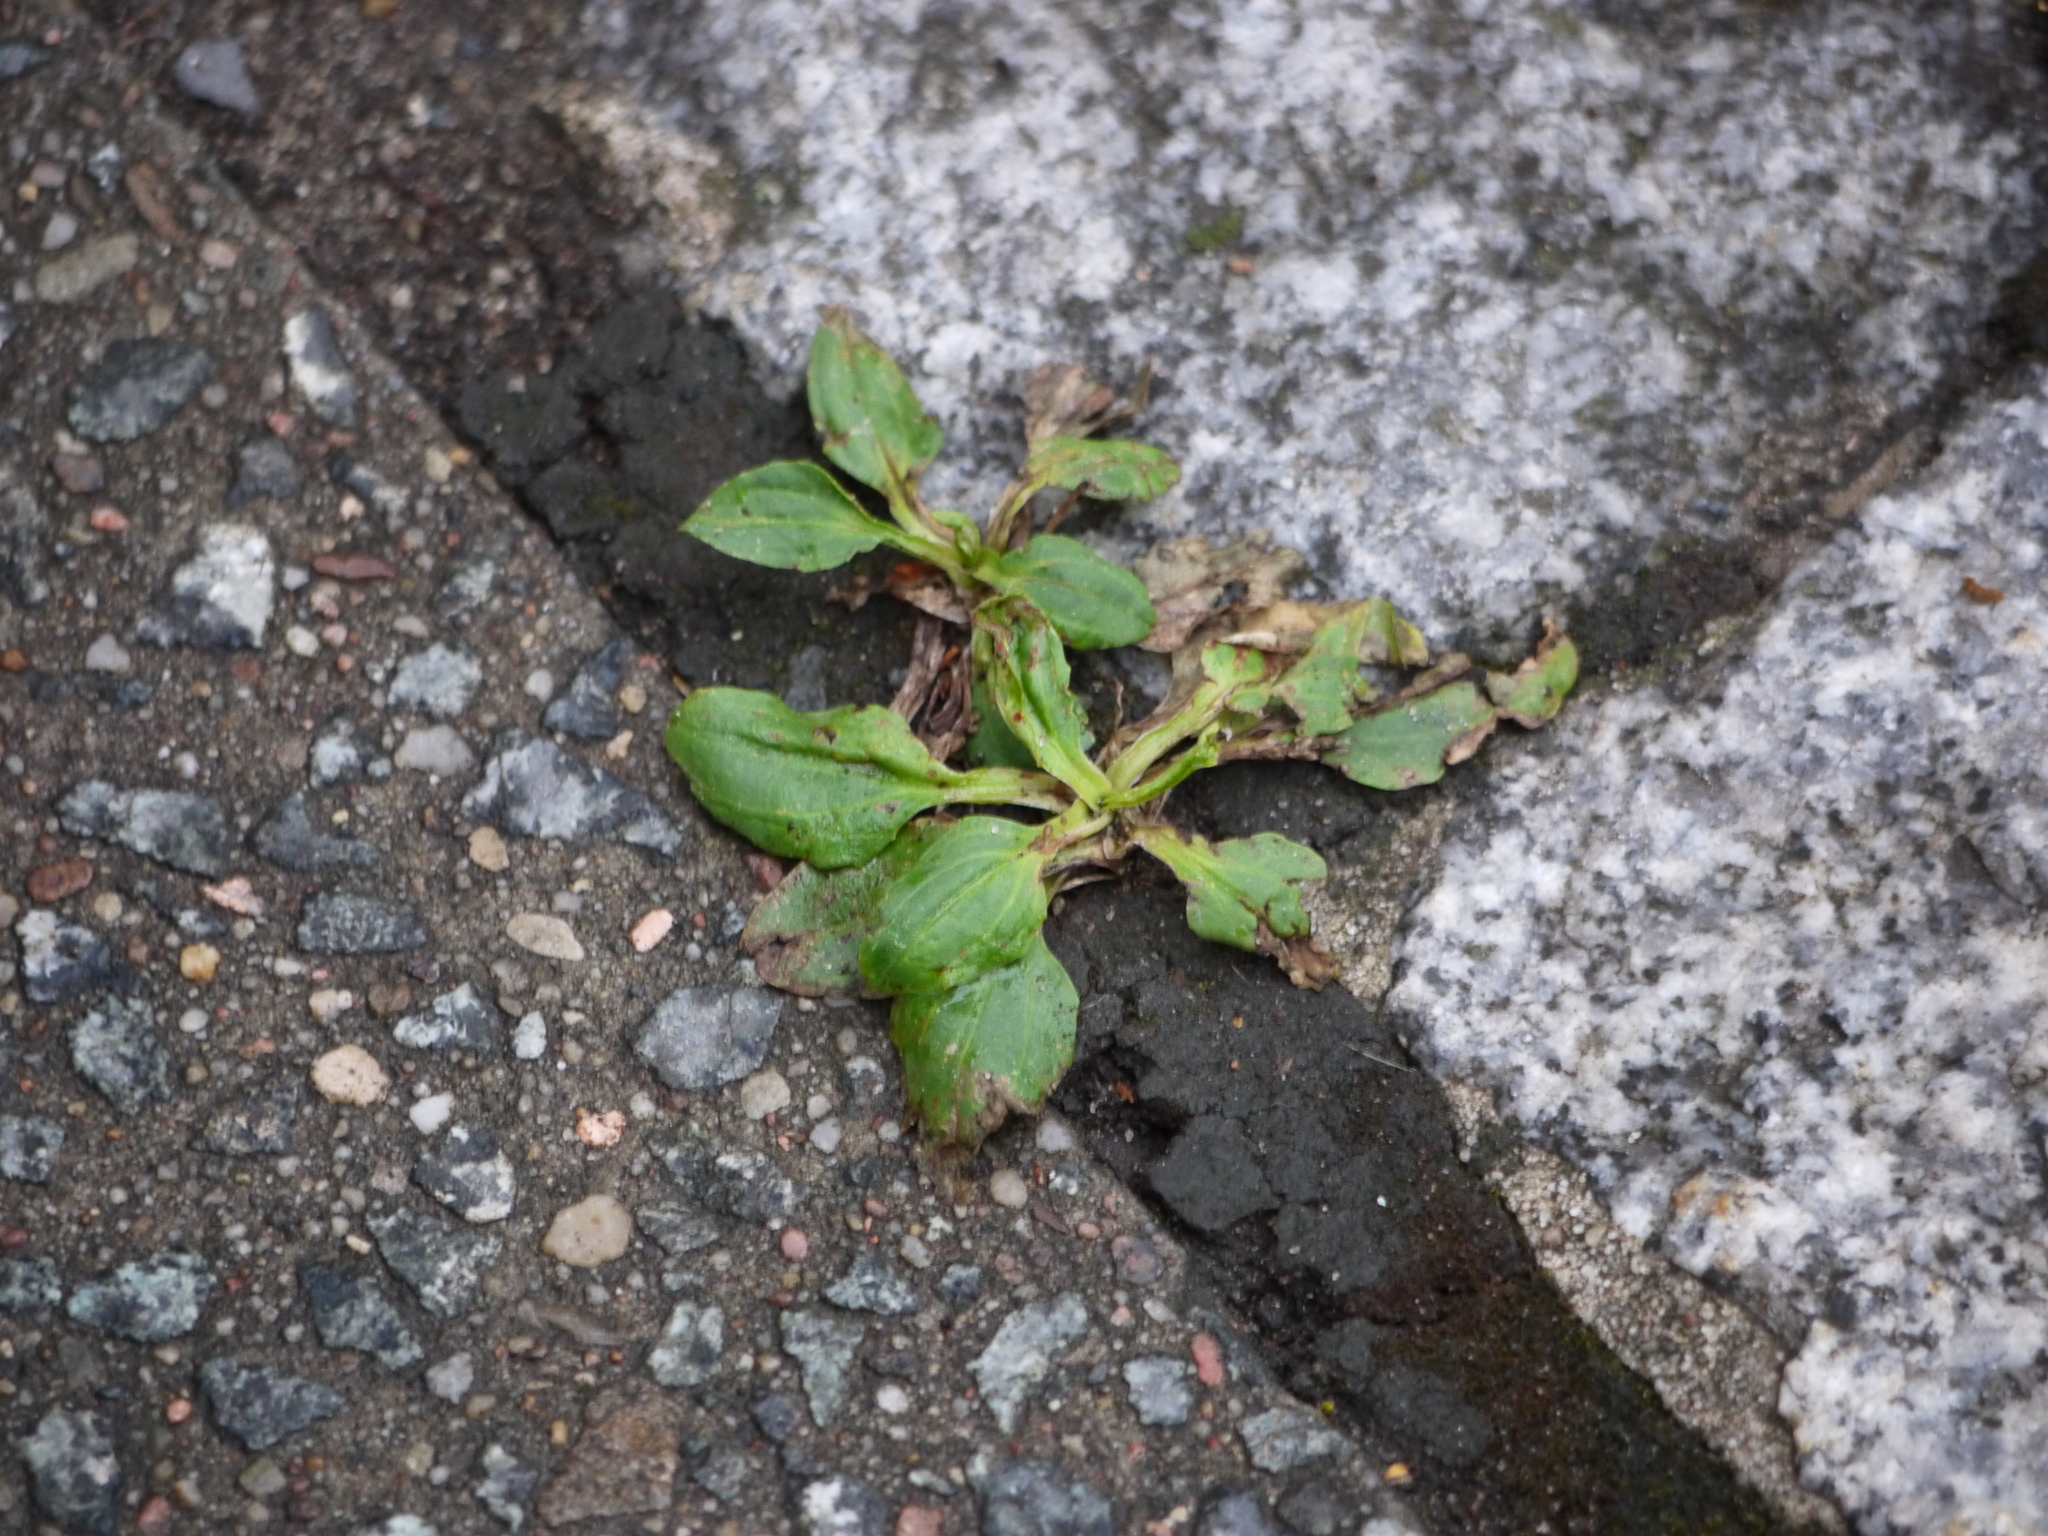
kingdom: Plantae
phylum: Tracheophyta
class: Magnoliopsida
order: Lamiales
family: Plantaginaceae
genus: Plantago
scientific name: Plantago major
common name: Common plantain
